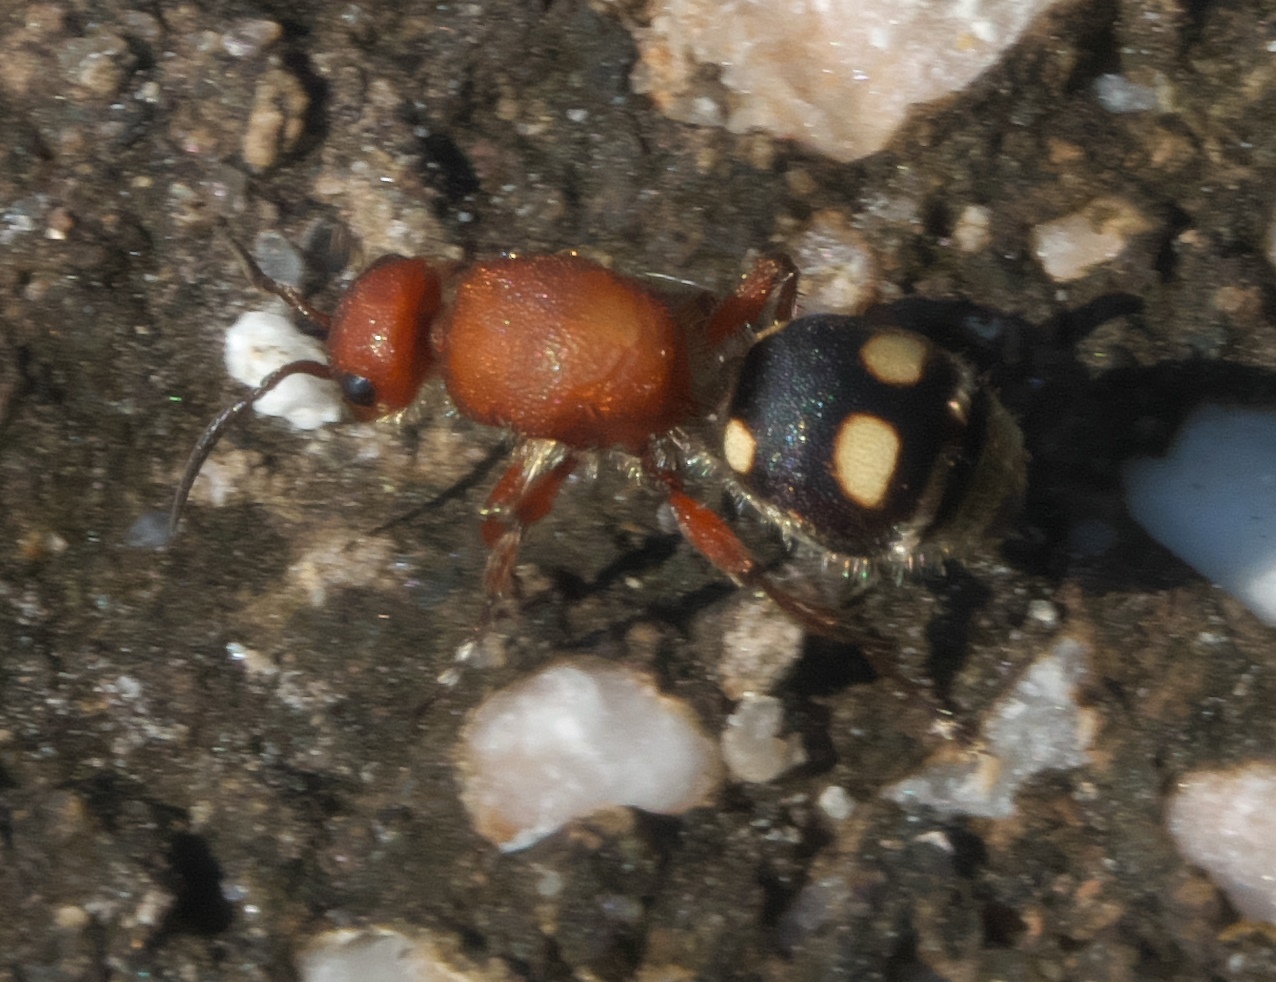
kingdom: Animalia
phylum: Arthropoda
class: Insecta
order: Hymenoptera
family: Mutillidae
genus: Dasymutilla
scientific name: Dasymutilla
